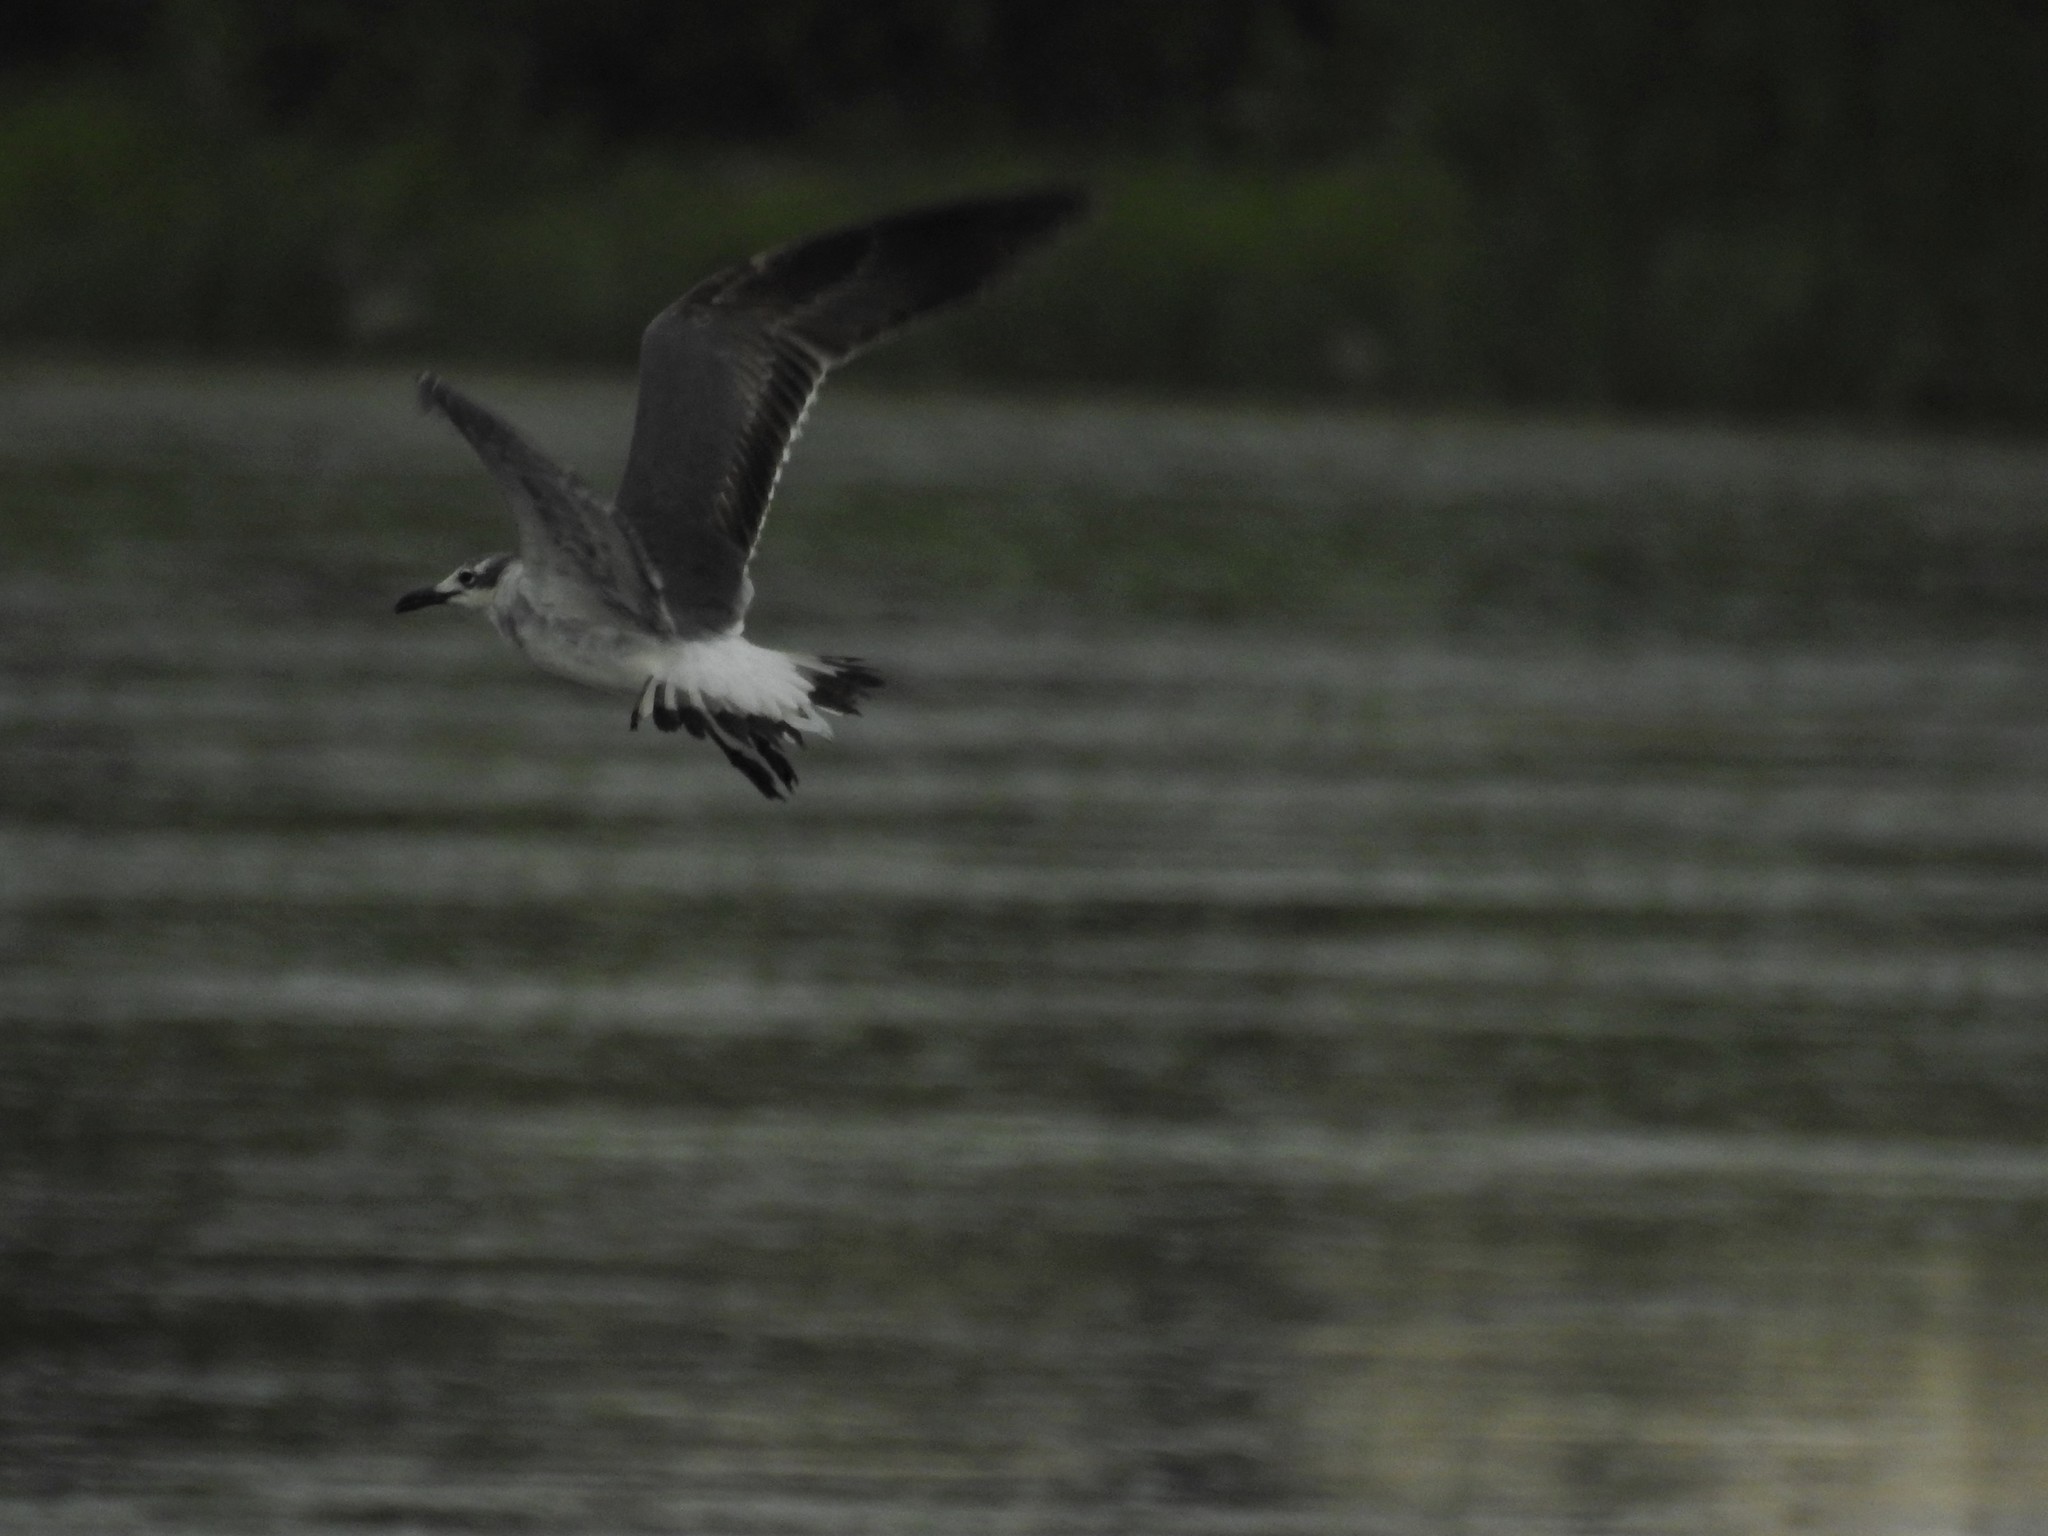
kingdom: Animalia
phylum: Chordata
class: Aves
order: Charadriiformes
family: Laridae
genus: Leucophaeus
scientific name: Leucophaeus atricilla
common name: Laughing gull
